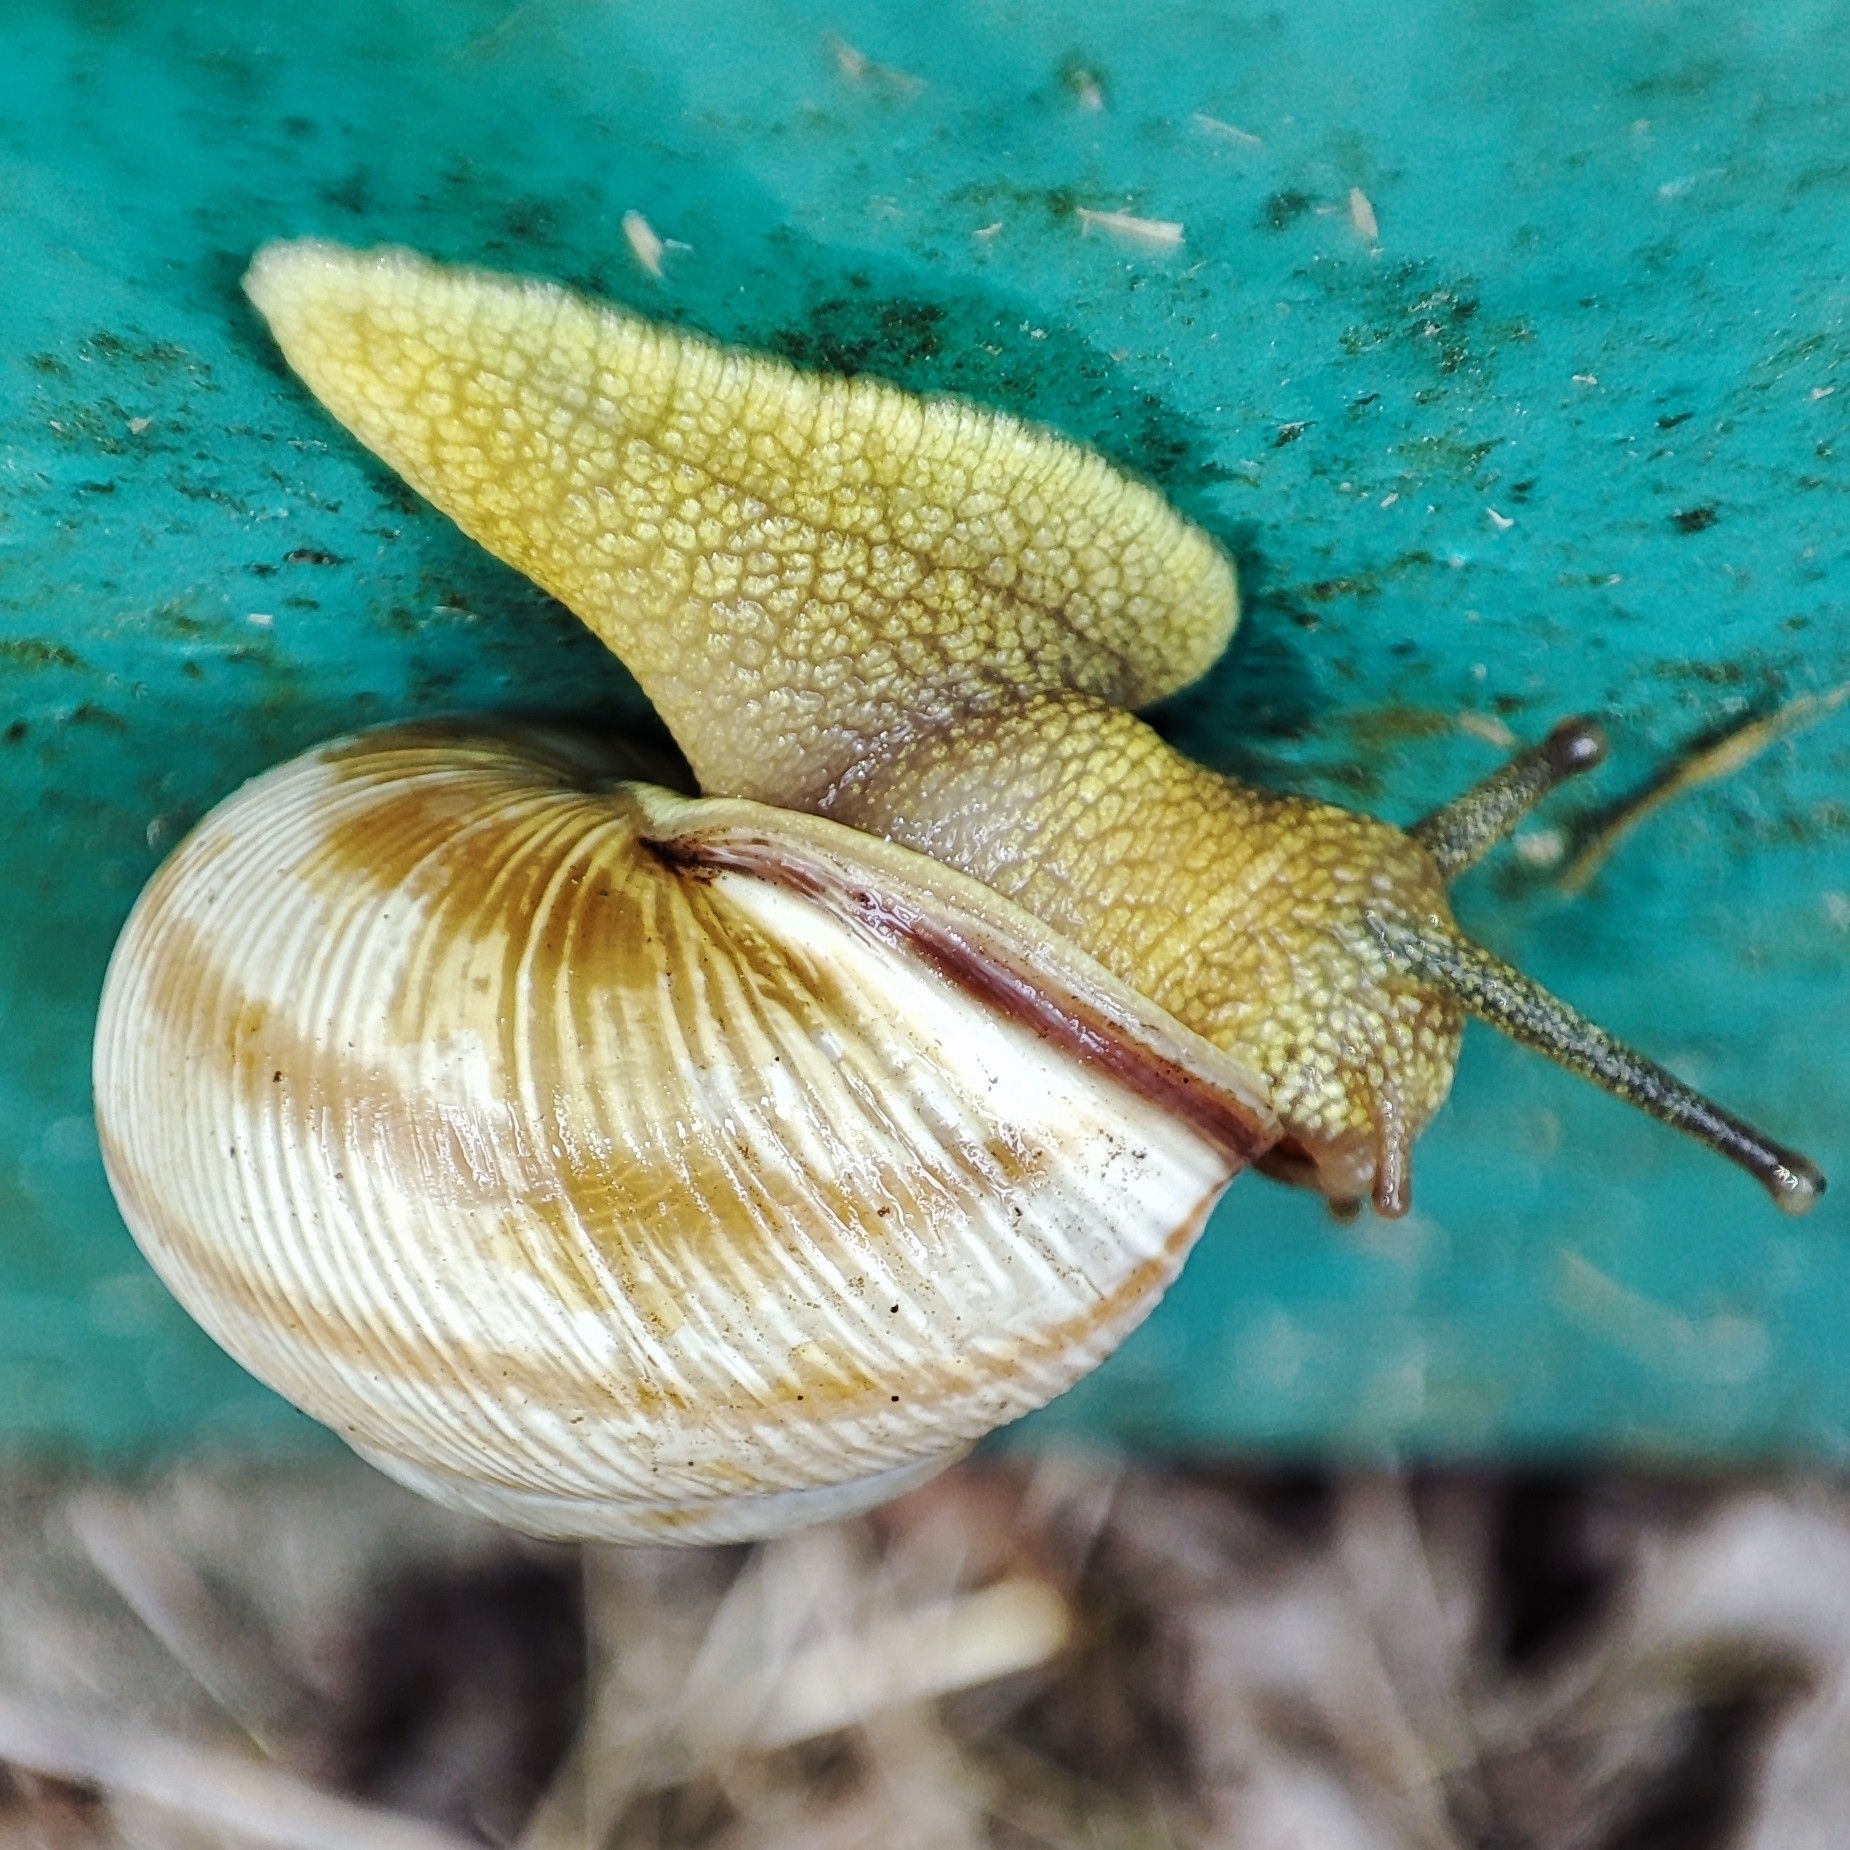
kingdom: Animalia
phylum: Mollusca
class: Gastropoda
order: Stylommatophora
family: Helicidae
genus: Caucasotachea
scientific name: Caucasotachea vindobonensis
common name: European helicid land snail
